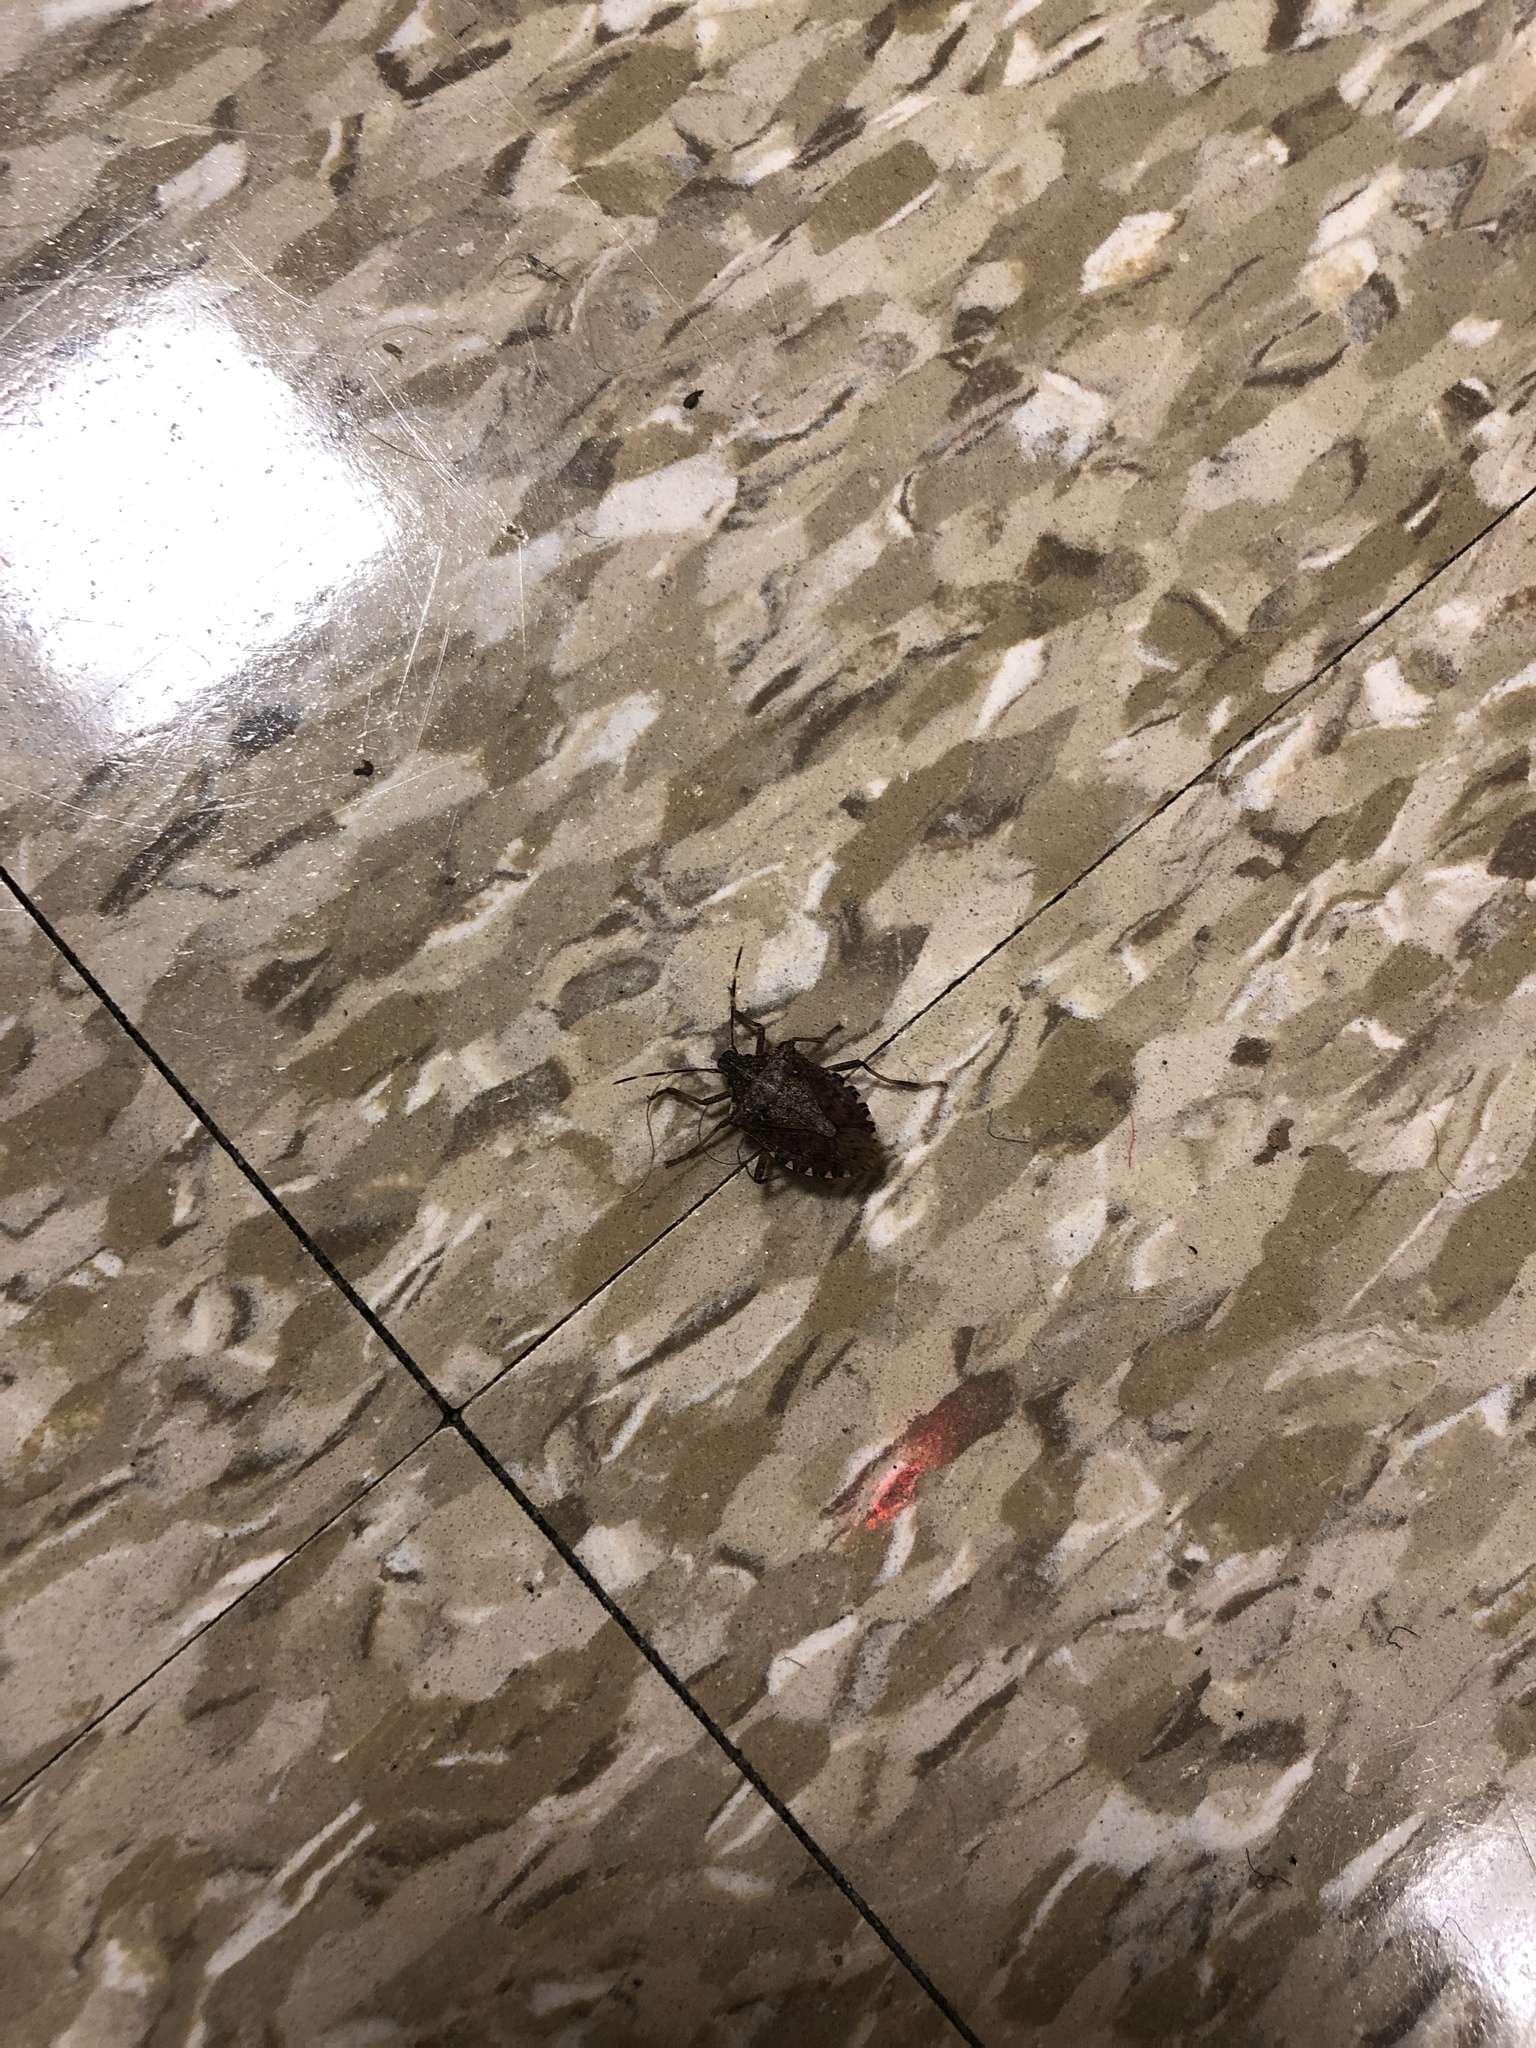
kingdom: Animalia
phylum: Arthropoda
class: Insecta
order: Hemiptera
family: Pentatomidae
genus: Halyomorpha
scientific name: Halyomorpha halys
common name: Brown marmorated stink bug
